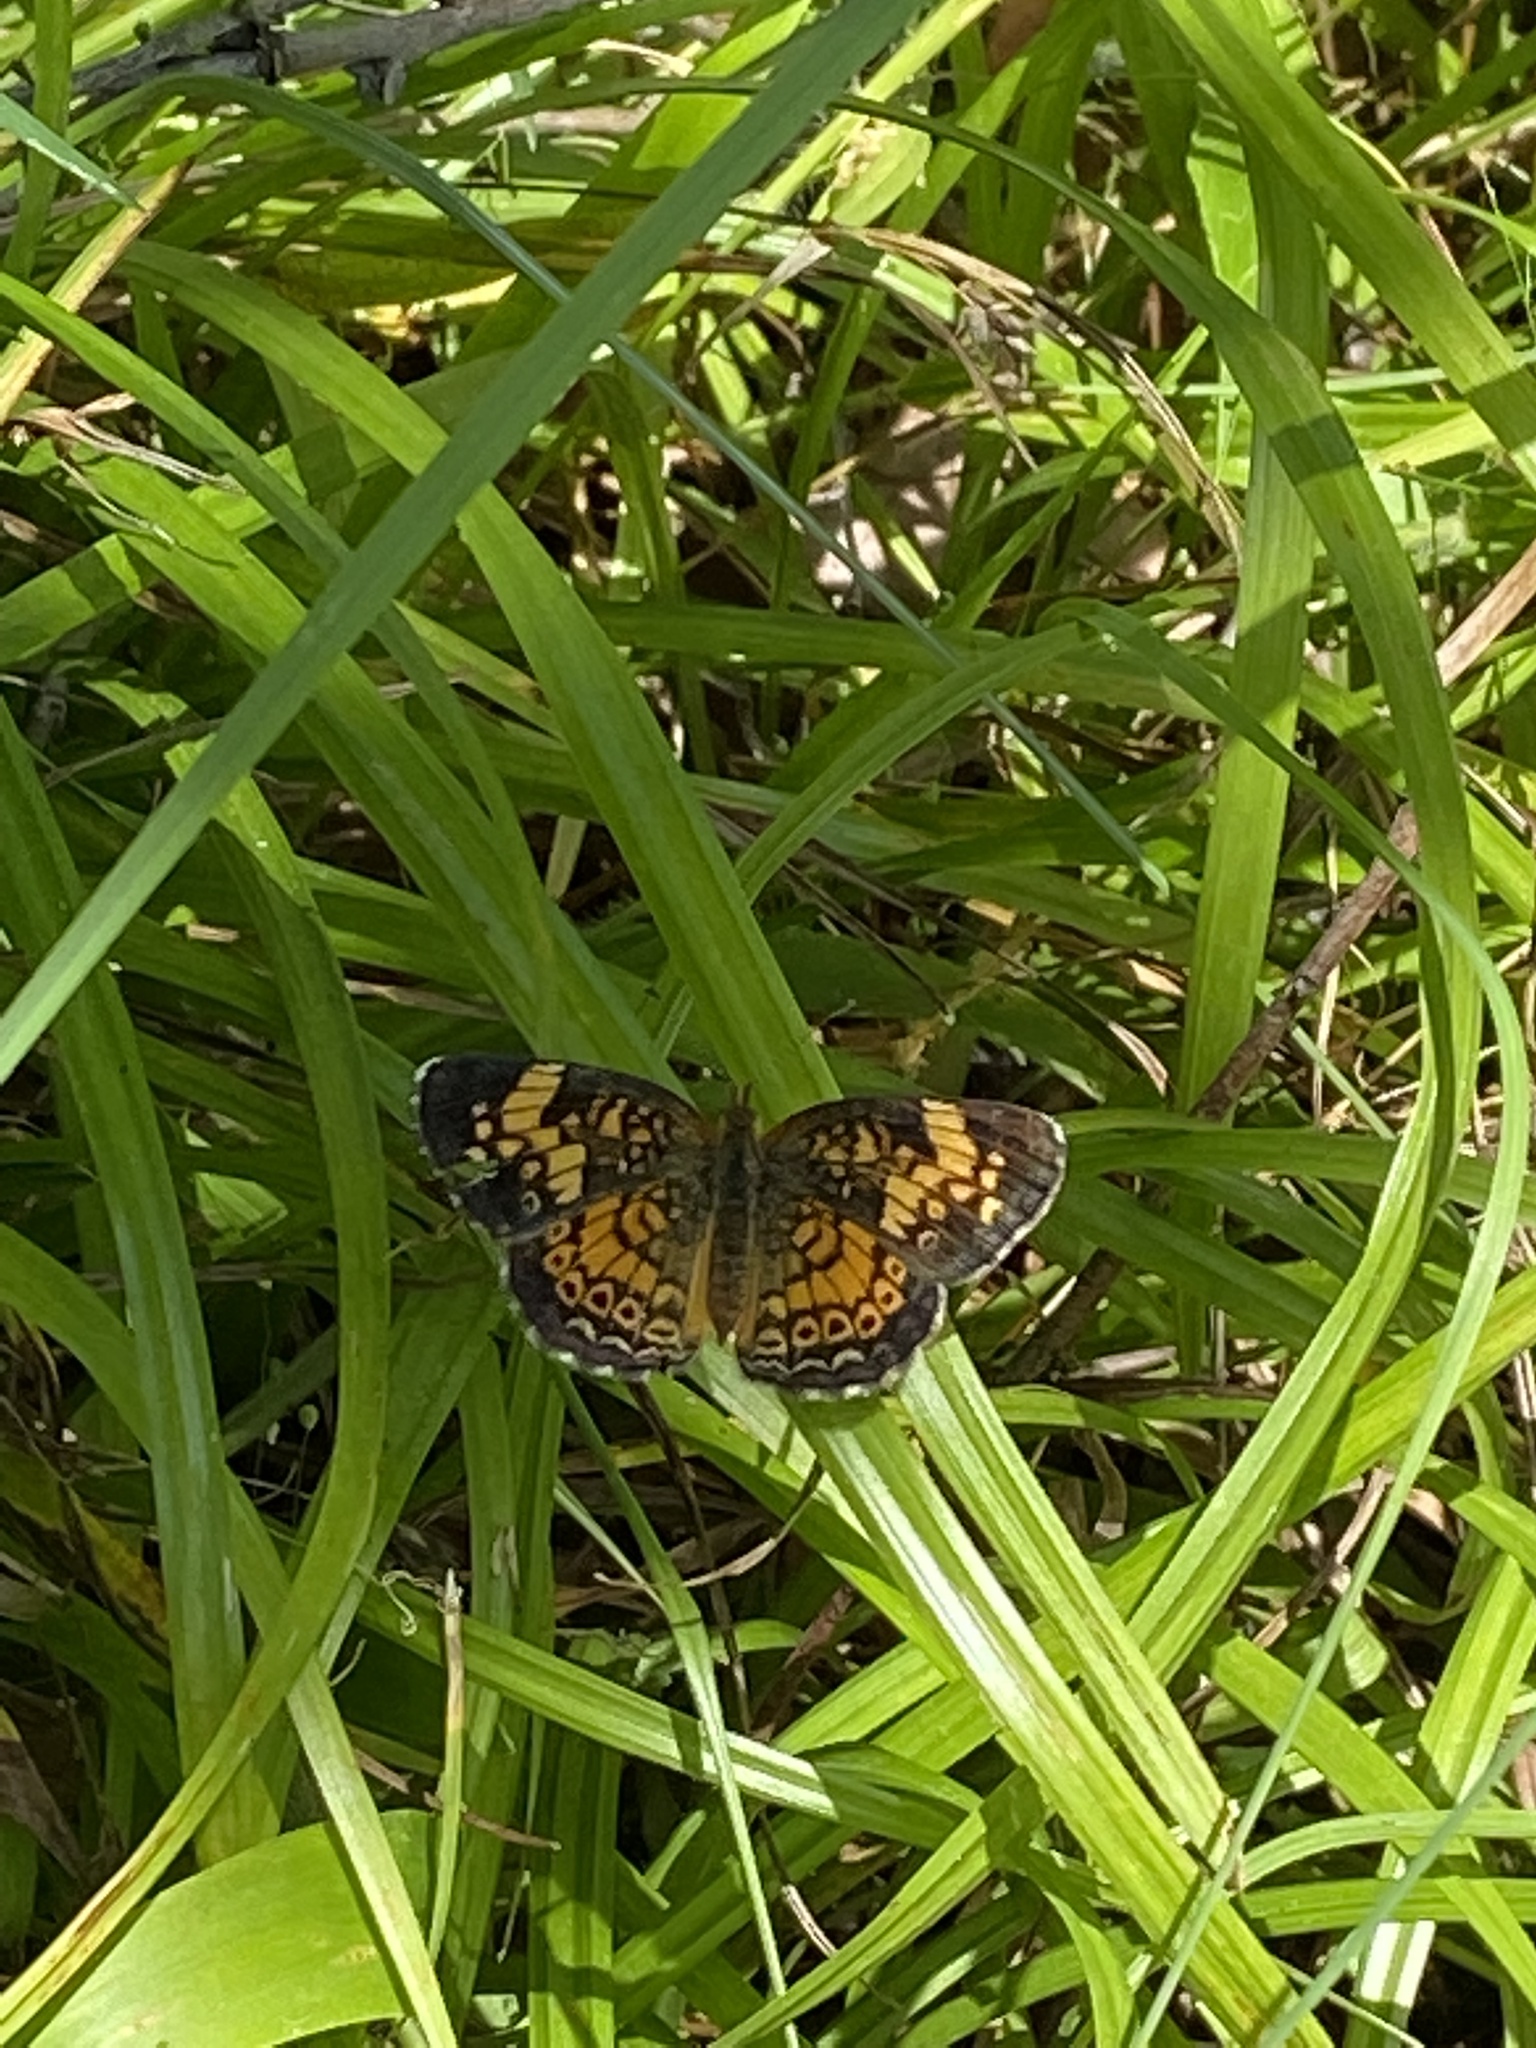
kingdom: Animalia
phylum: Arthropoda
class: Insecta
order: Lepidoptera
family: Nymphalidae
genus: Phyciodes
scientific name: Phyciodes tharos
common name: Pearl crescent
